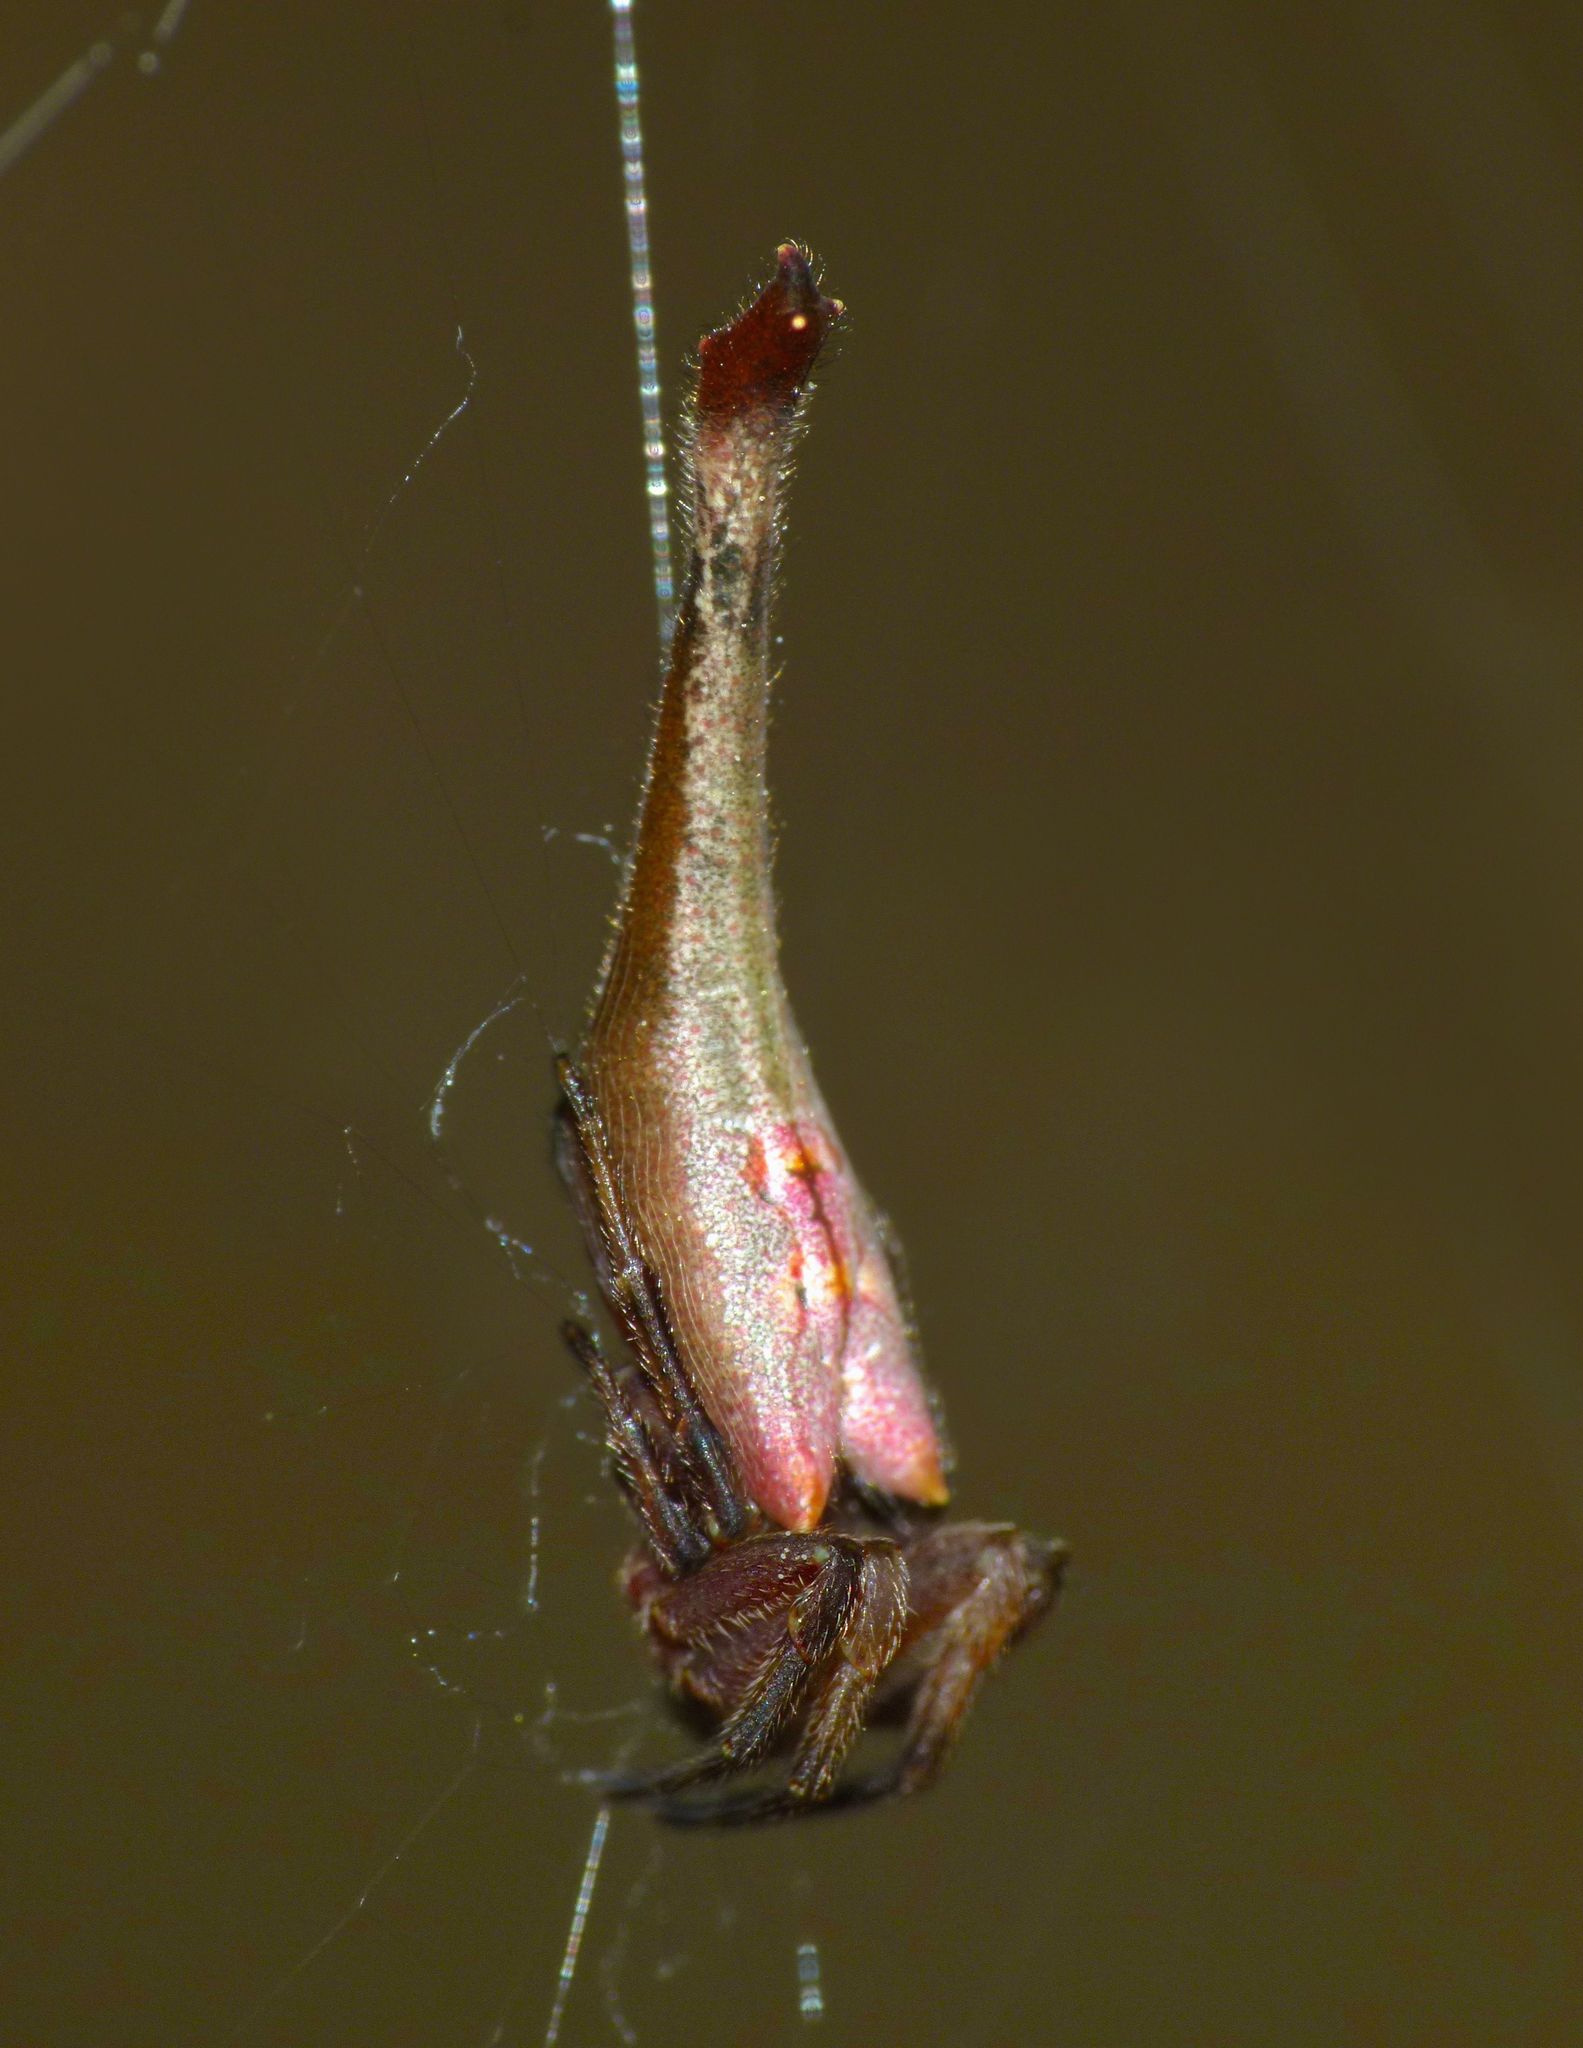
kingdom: Animalia
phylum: Arthropoda
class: Arachnida
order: Araneae
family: Araneidae
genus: Arachnura
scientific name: Arachnura feredayi
